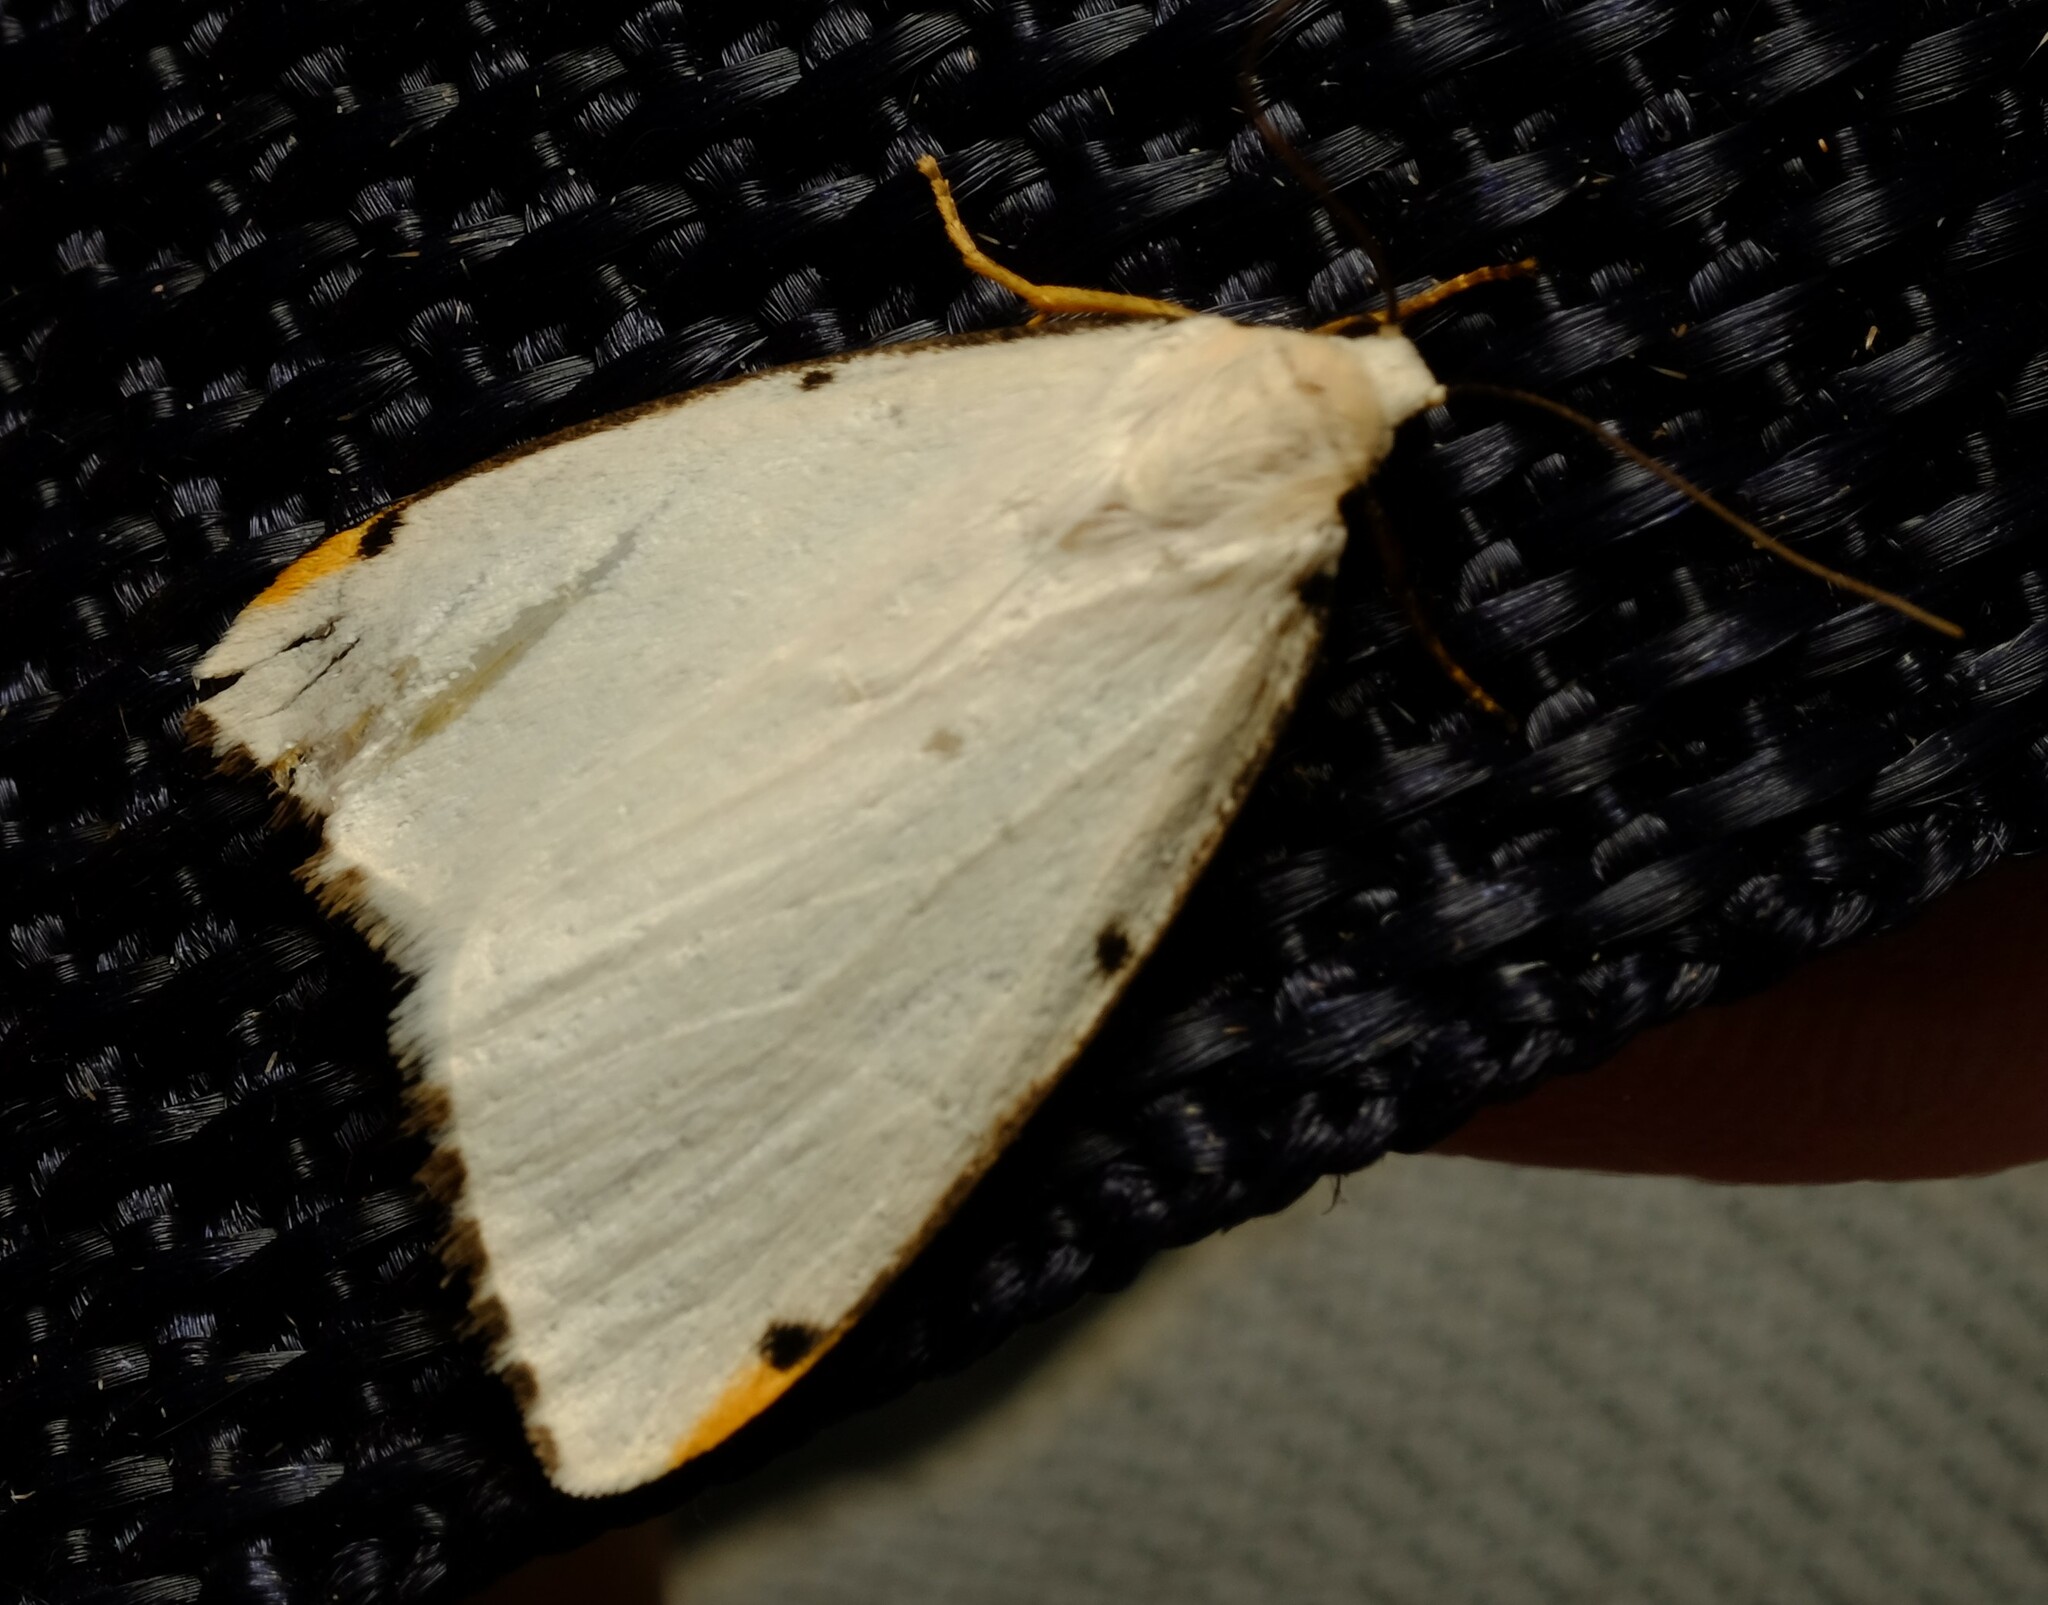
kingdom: Animalia
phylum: Arthropoda
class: Insecta
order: Lepidoptera
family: Erebidae
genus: Termessa
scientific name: Termessa nivosa
